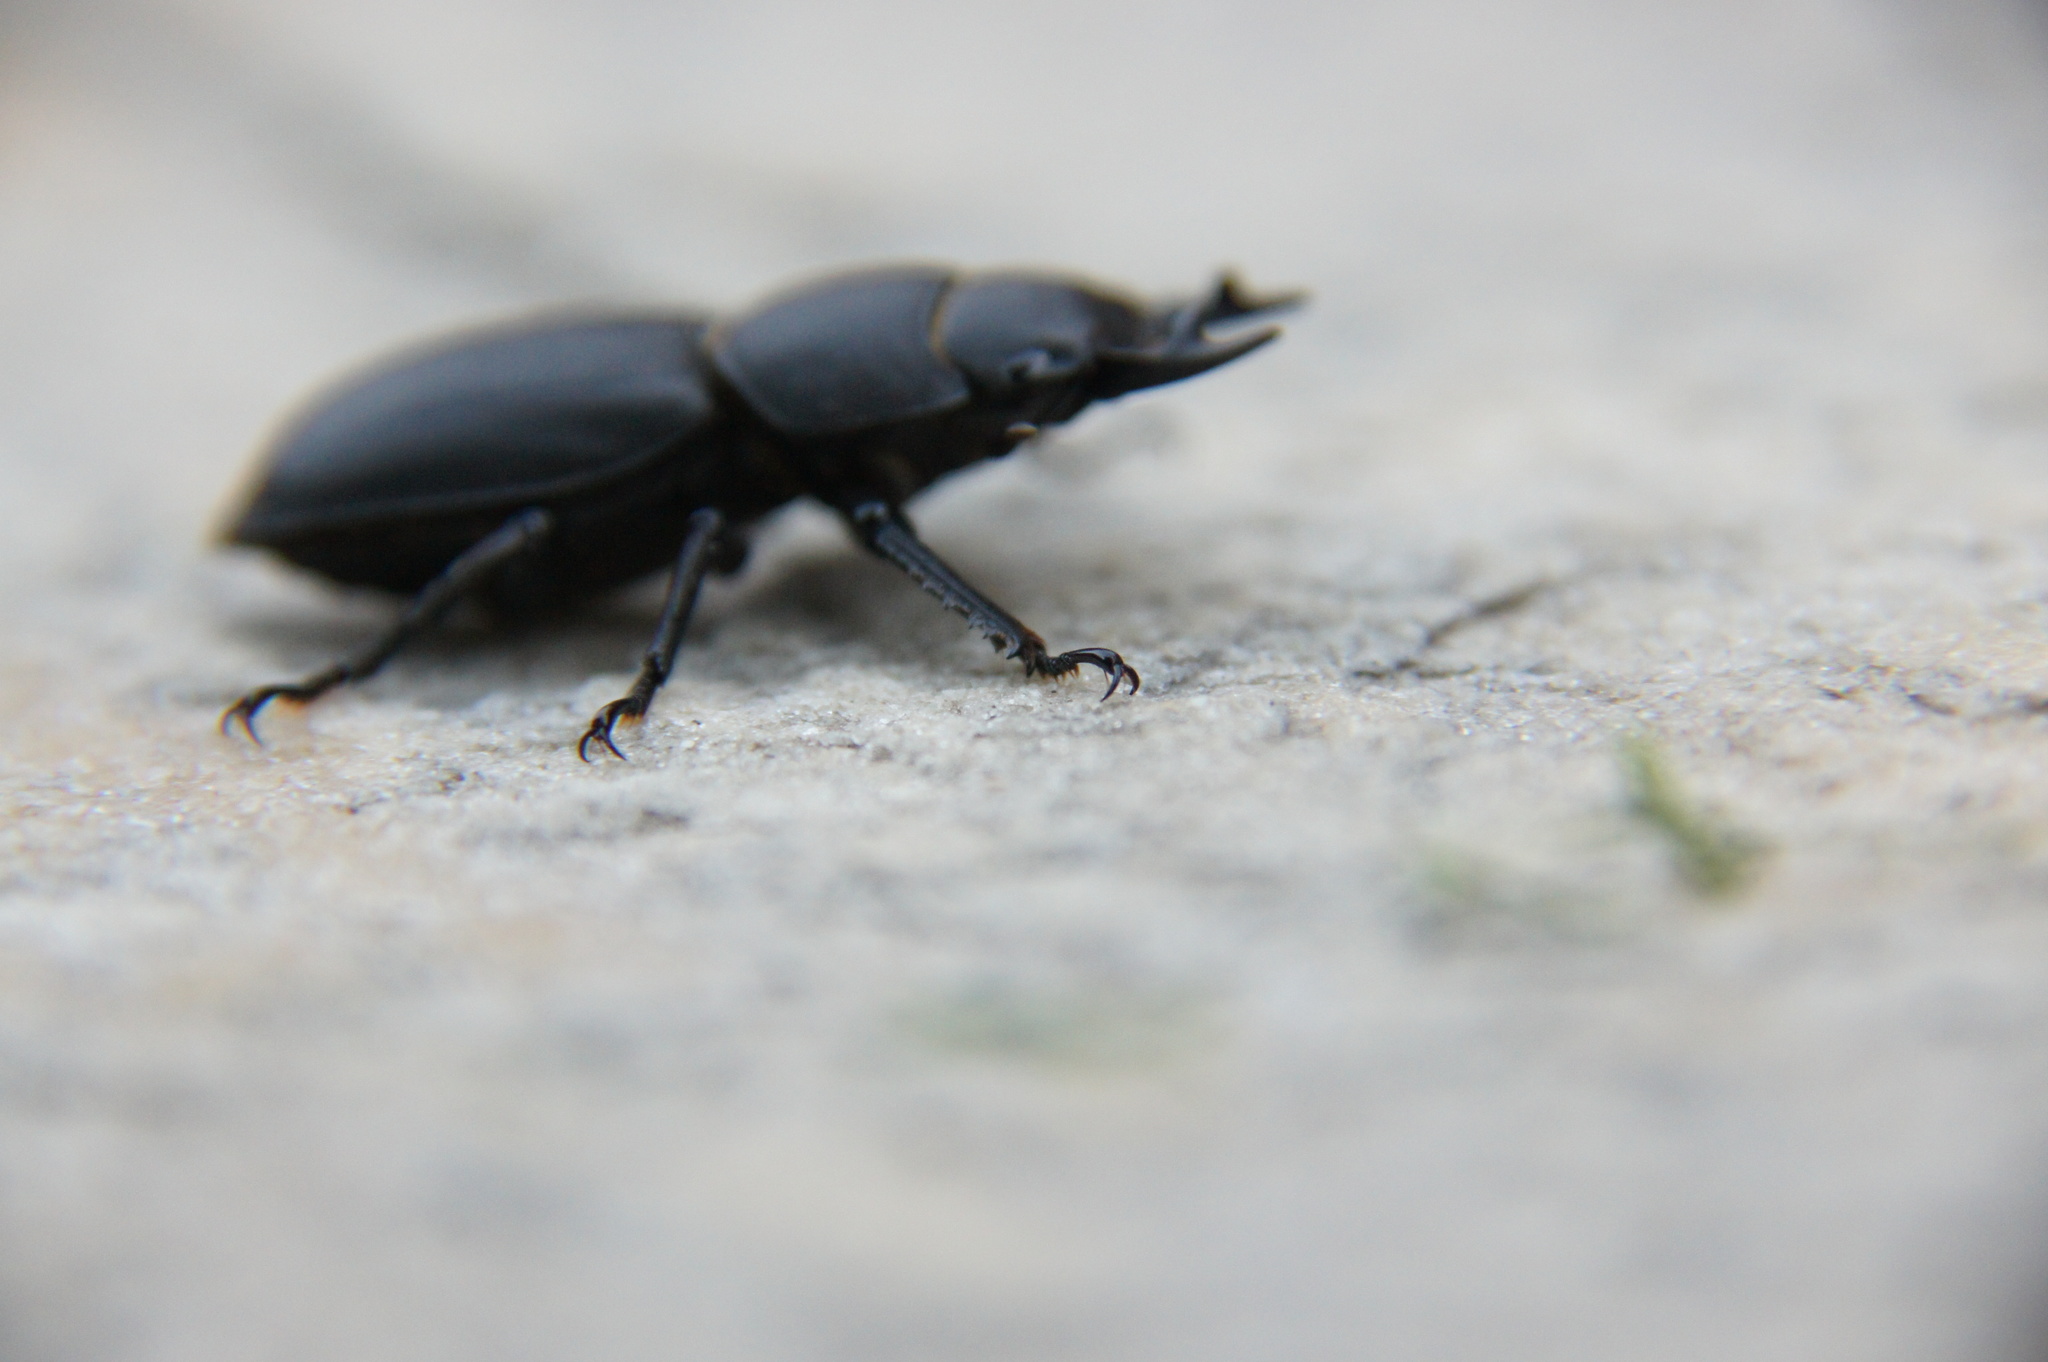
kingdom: Animalia
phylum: Arthropoda
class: Insecta
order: Coleoptera
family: Lucanidae
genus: Dorcus
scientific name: Dorcus parallelipipedus
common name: Lesser stag beetle
